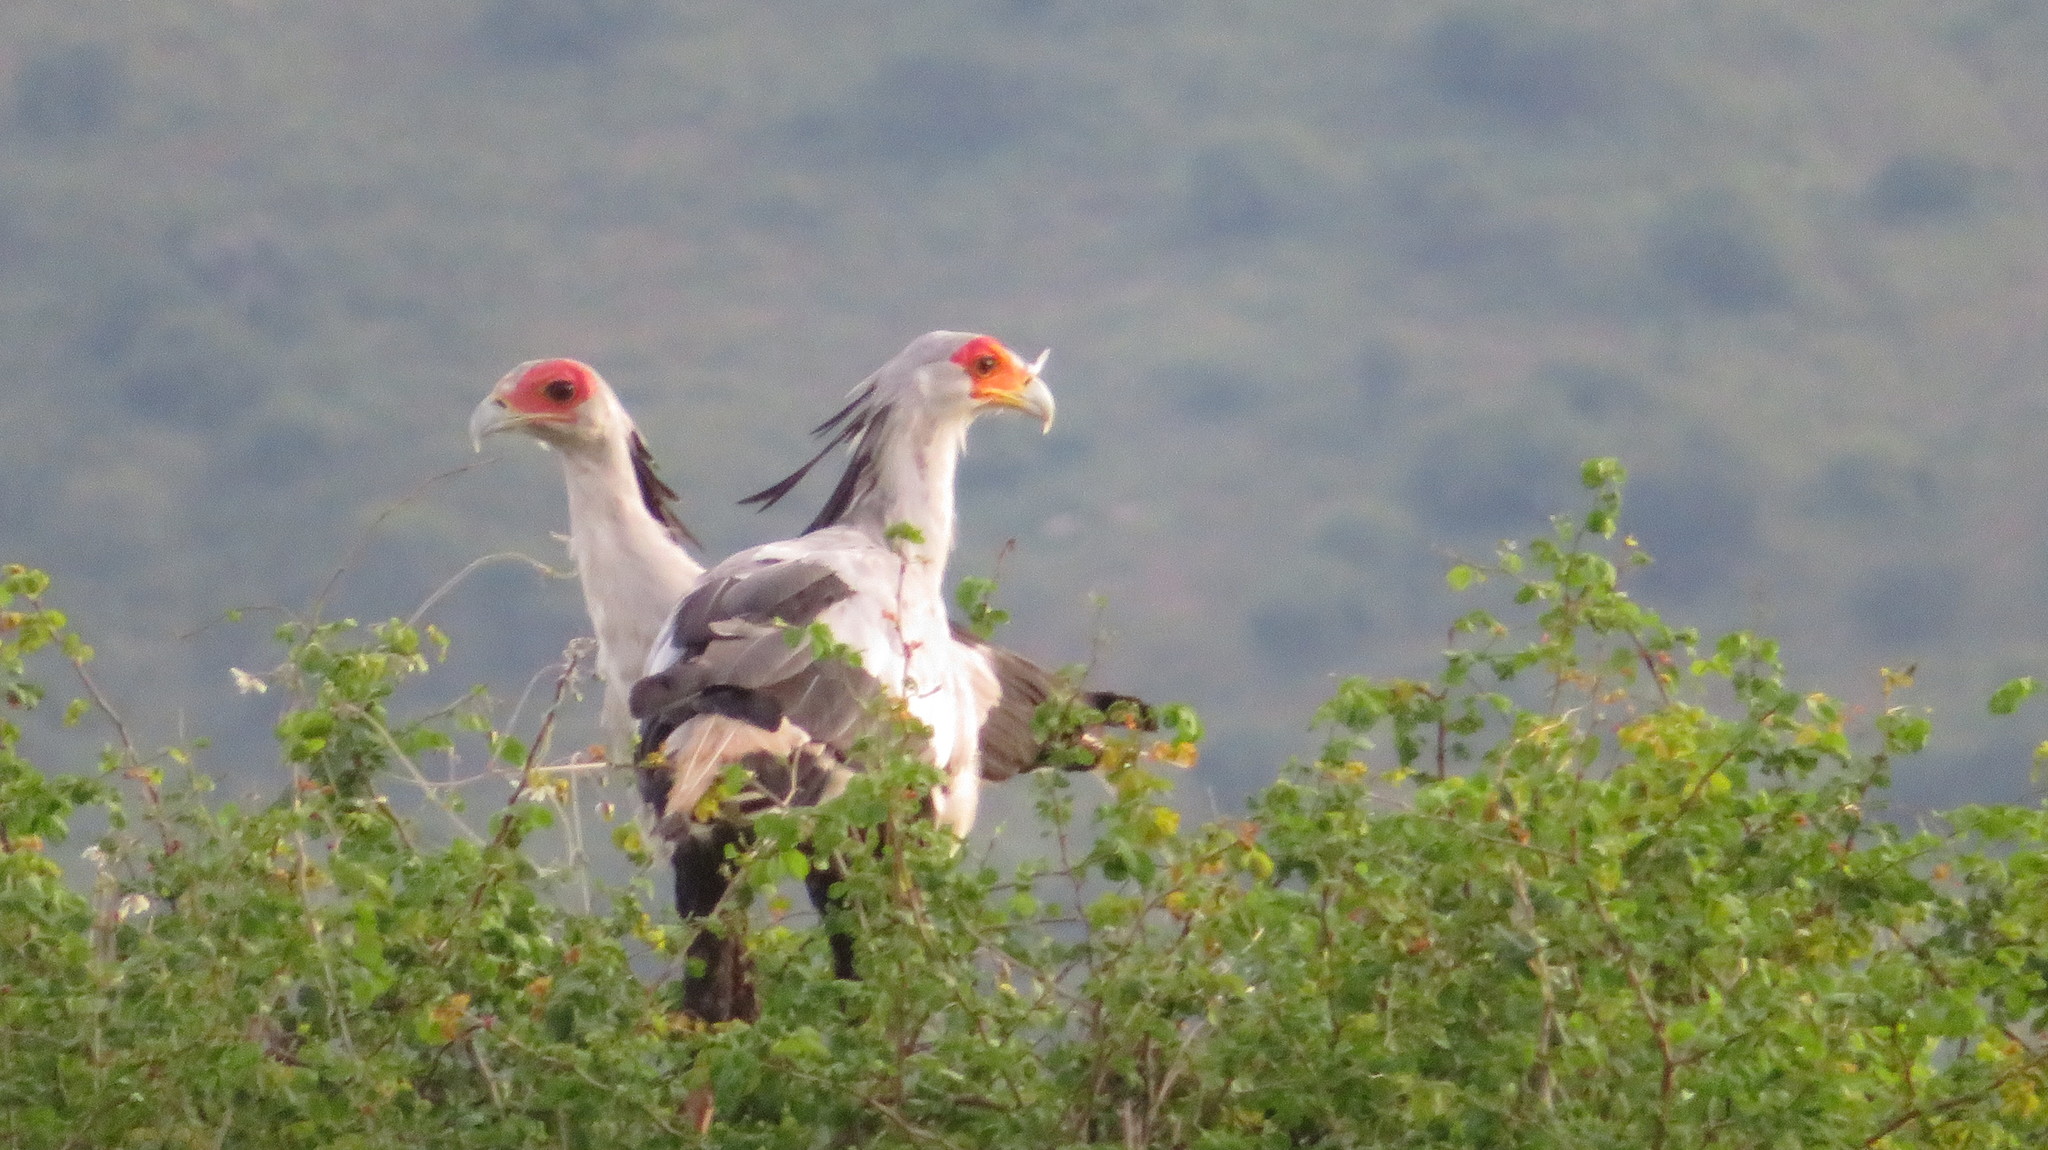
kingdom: Animalia
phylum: Chordata
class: Aves
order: Accipitriformes
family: Sagittariidae
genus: Sagittarius
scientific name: Sagittarius serpentarius
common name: Secretarybird
